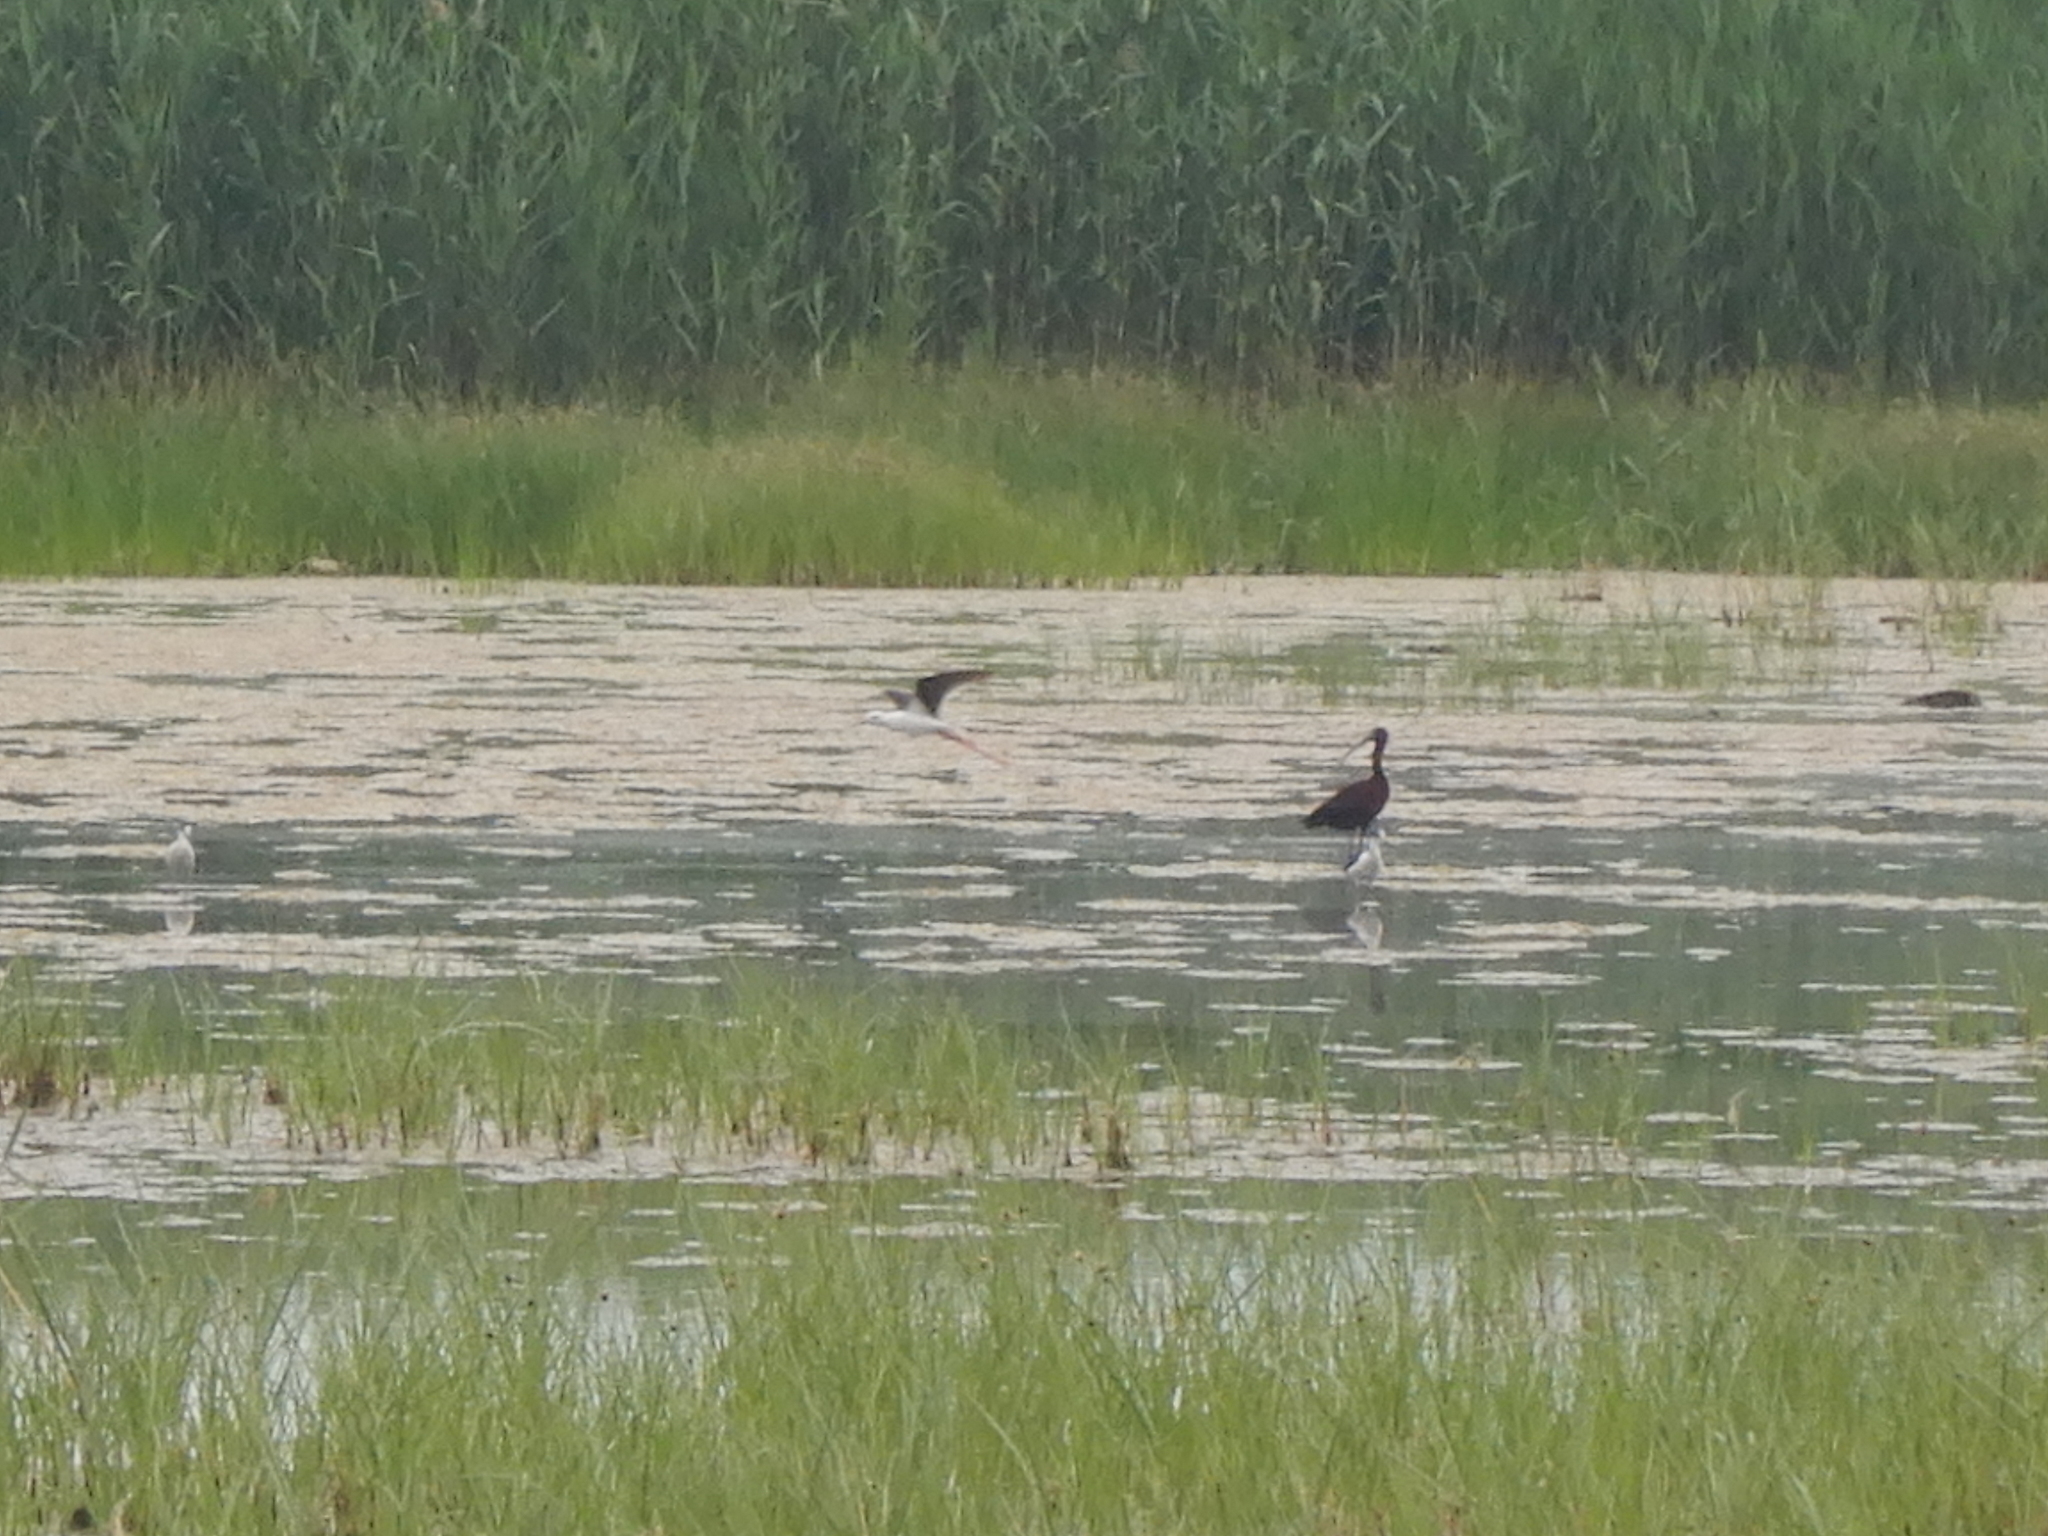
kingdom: Animalia
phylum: Chordata
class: Aves
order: Pelecaniformes
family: Threskiornithidae
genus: Plegadis
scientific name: Plegadis falcinellus
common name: Glossy ibis
